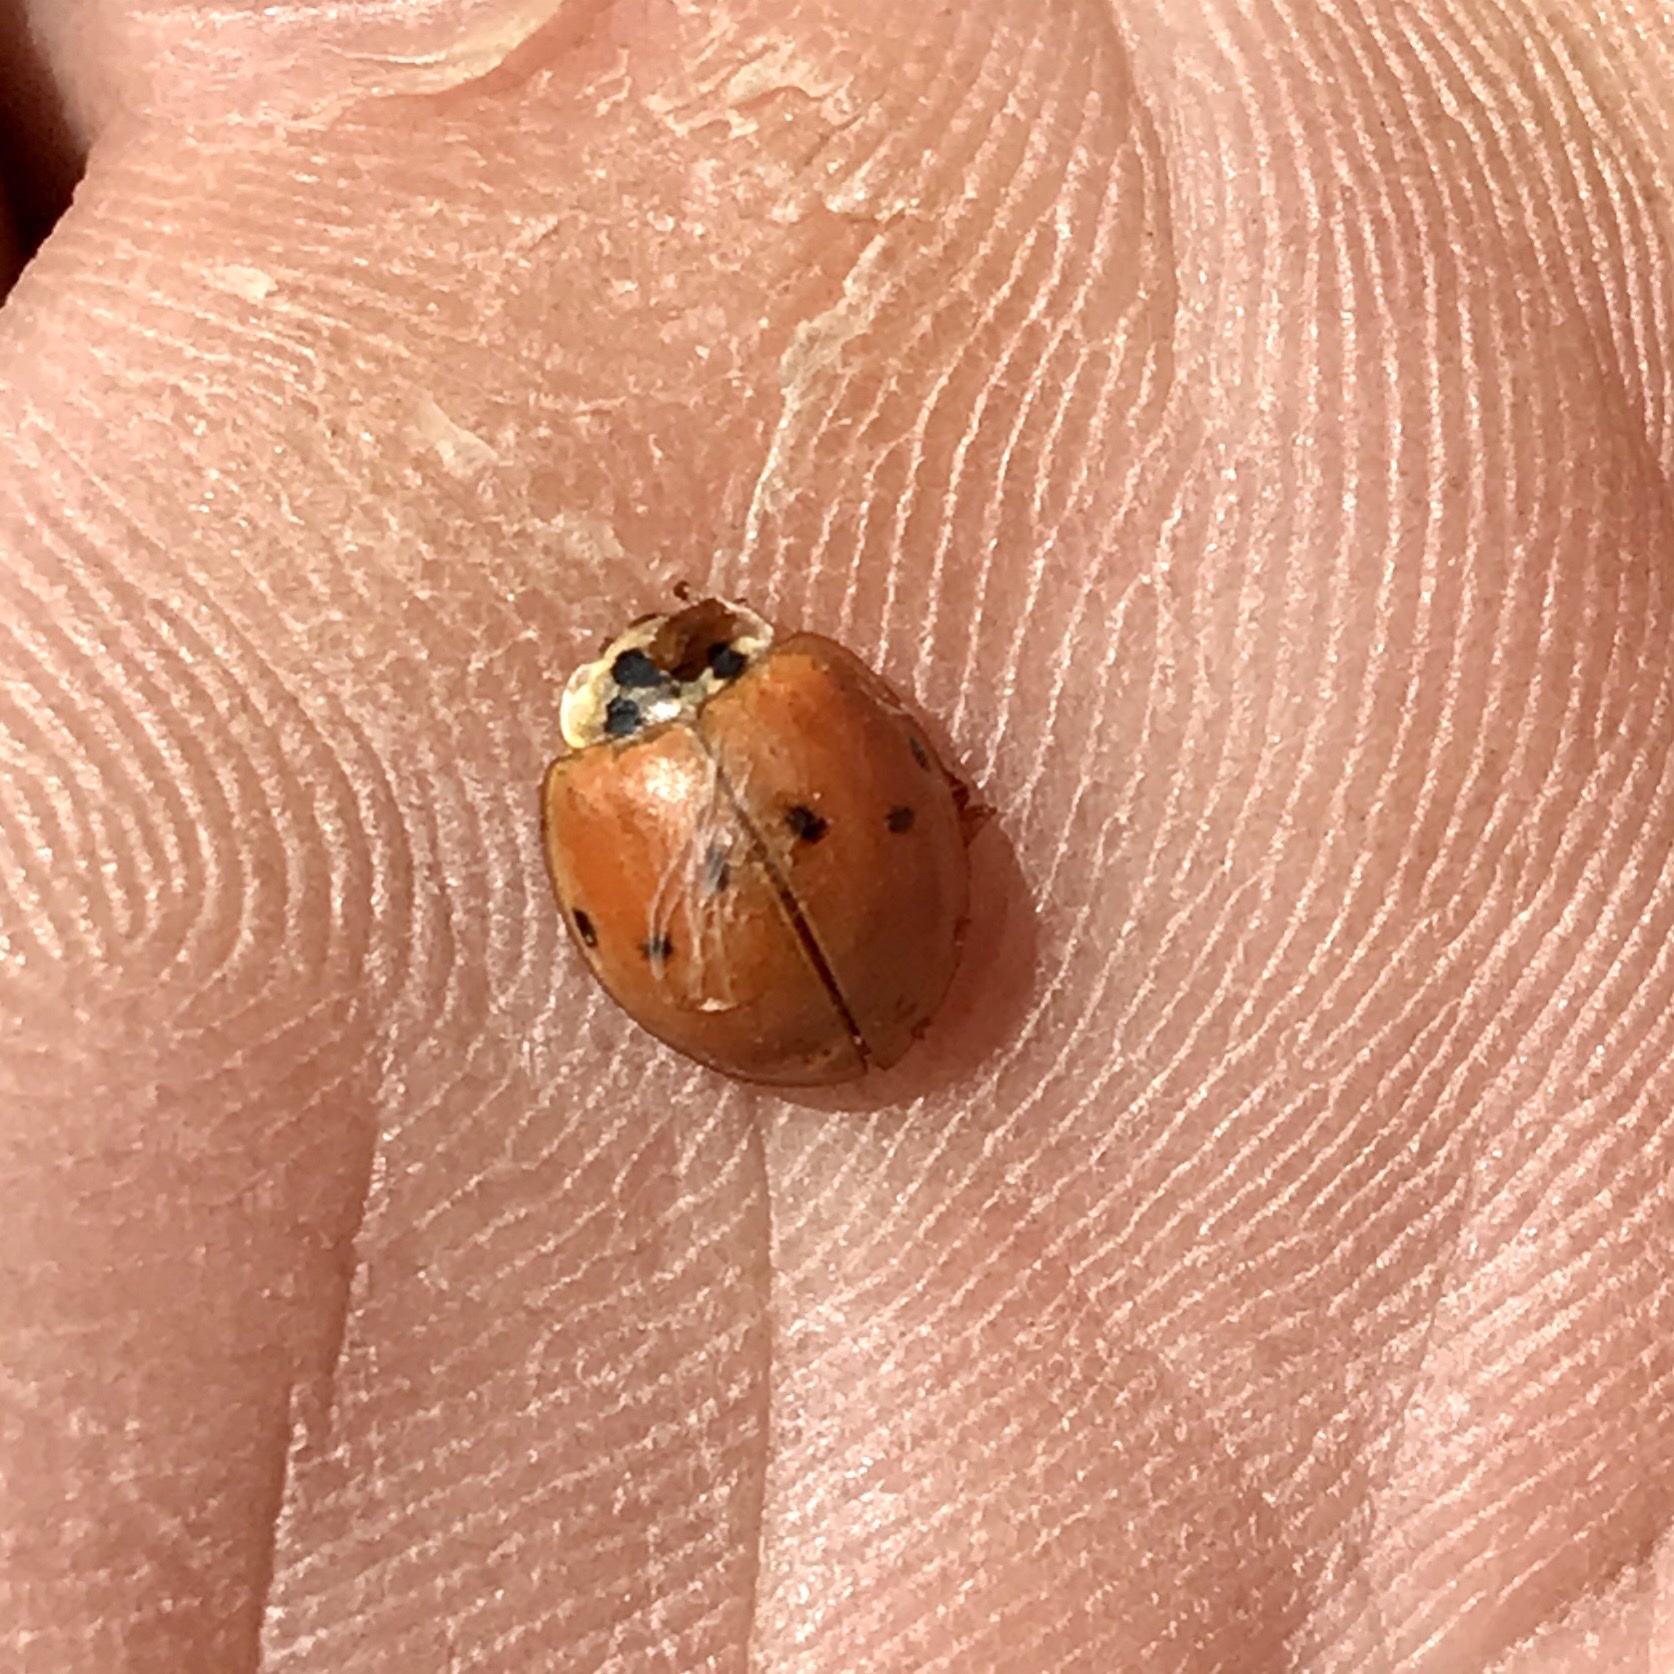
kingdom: Animalia
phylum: Arthropoda
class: Insecta
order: Coleoptera
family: Coccinellidae
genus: Harmonia
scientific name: Harmonia axyridis
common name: Harlequin ladybird
